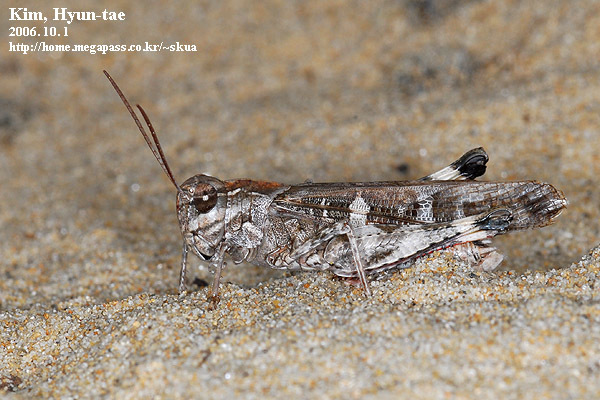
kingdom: Animalia
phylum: Arthropoda
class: Insecta
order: Orthoptera
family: Acrididae
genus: Oedaleus
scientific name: Oedaleus infernalis
